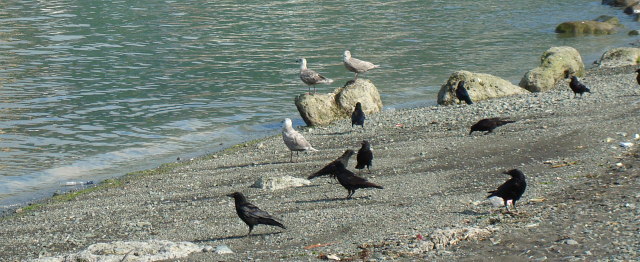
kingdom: Animalia
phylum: Chordata
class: Aves
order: Passeriformes
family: Corvidae
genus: Corvus
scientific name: Corvus corone
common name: Carrion crow
